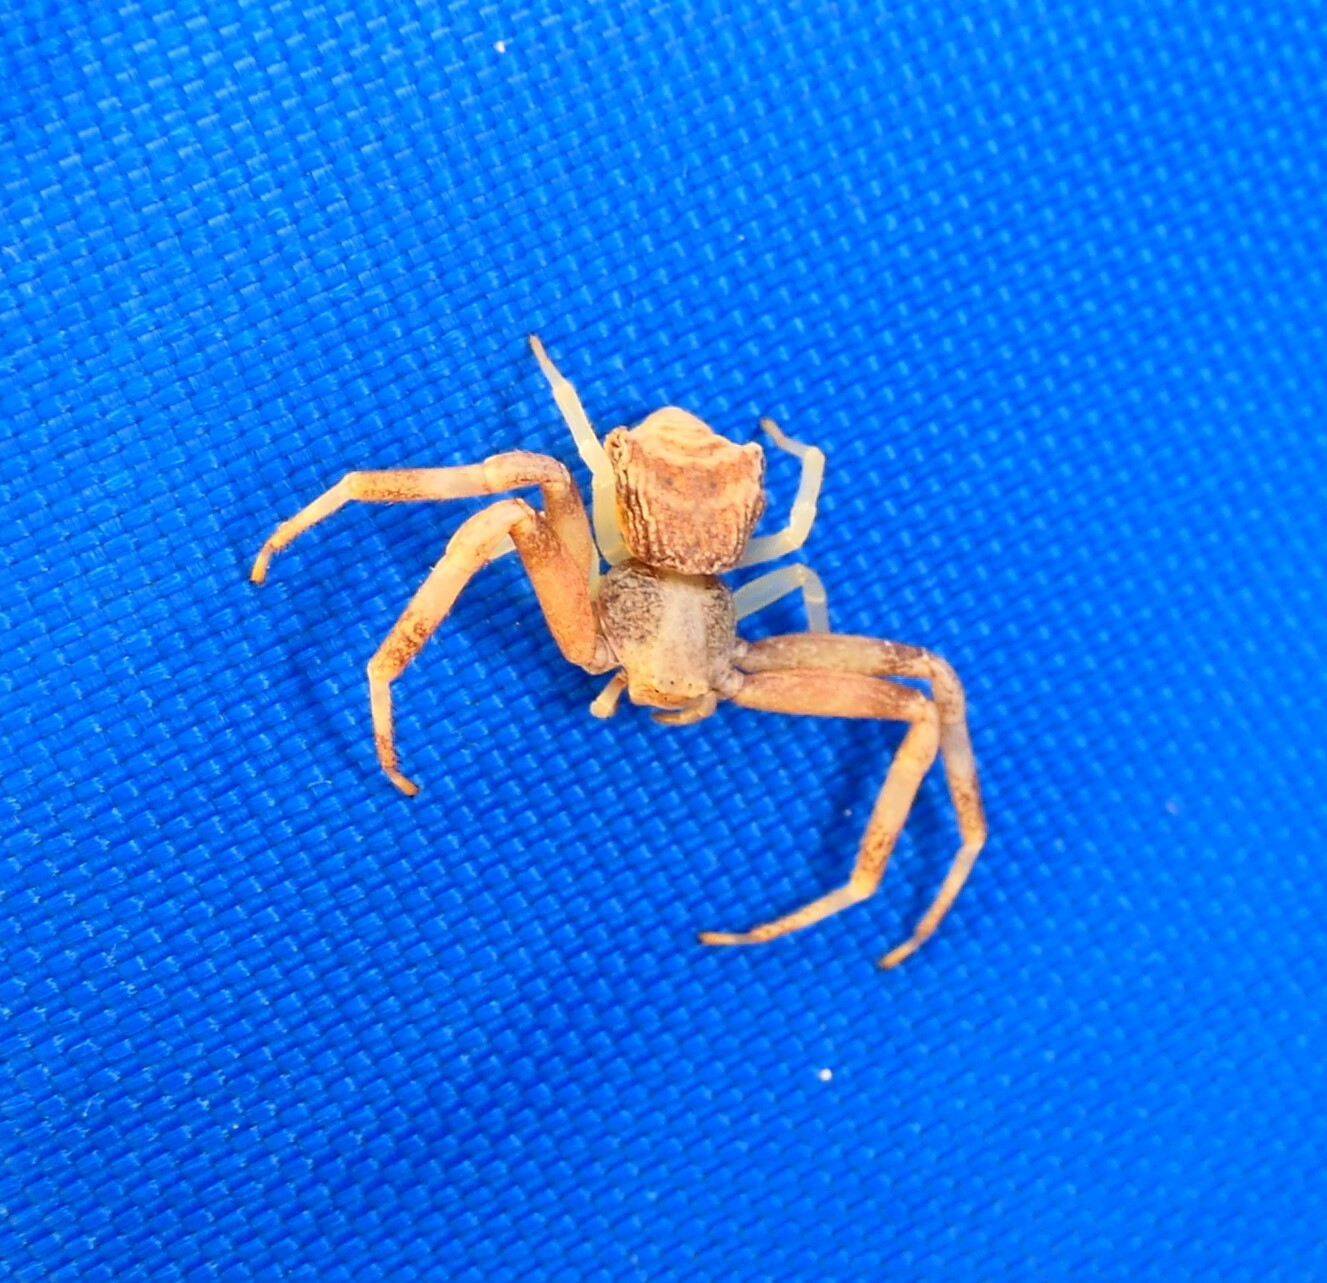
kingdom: Animalia
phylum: Arthropoda
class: Arachnida
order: Araneae
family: Thomisidae
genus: Pistius
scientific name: Pistius truncatus
